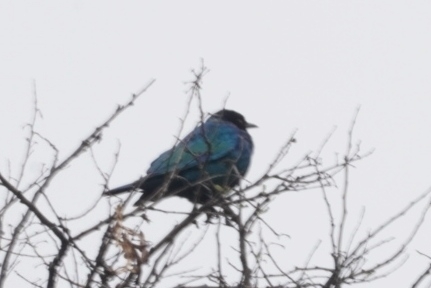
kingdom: Animalia
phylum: Chordata
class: Aves
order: Passeriformes
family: Sturnidae
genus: Lamprotornis
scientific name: Lamprotornis nitens
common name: Cape starling
